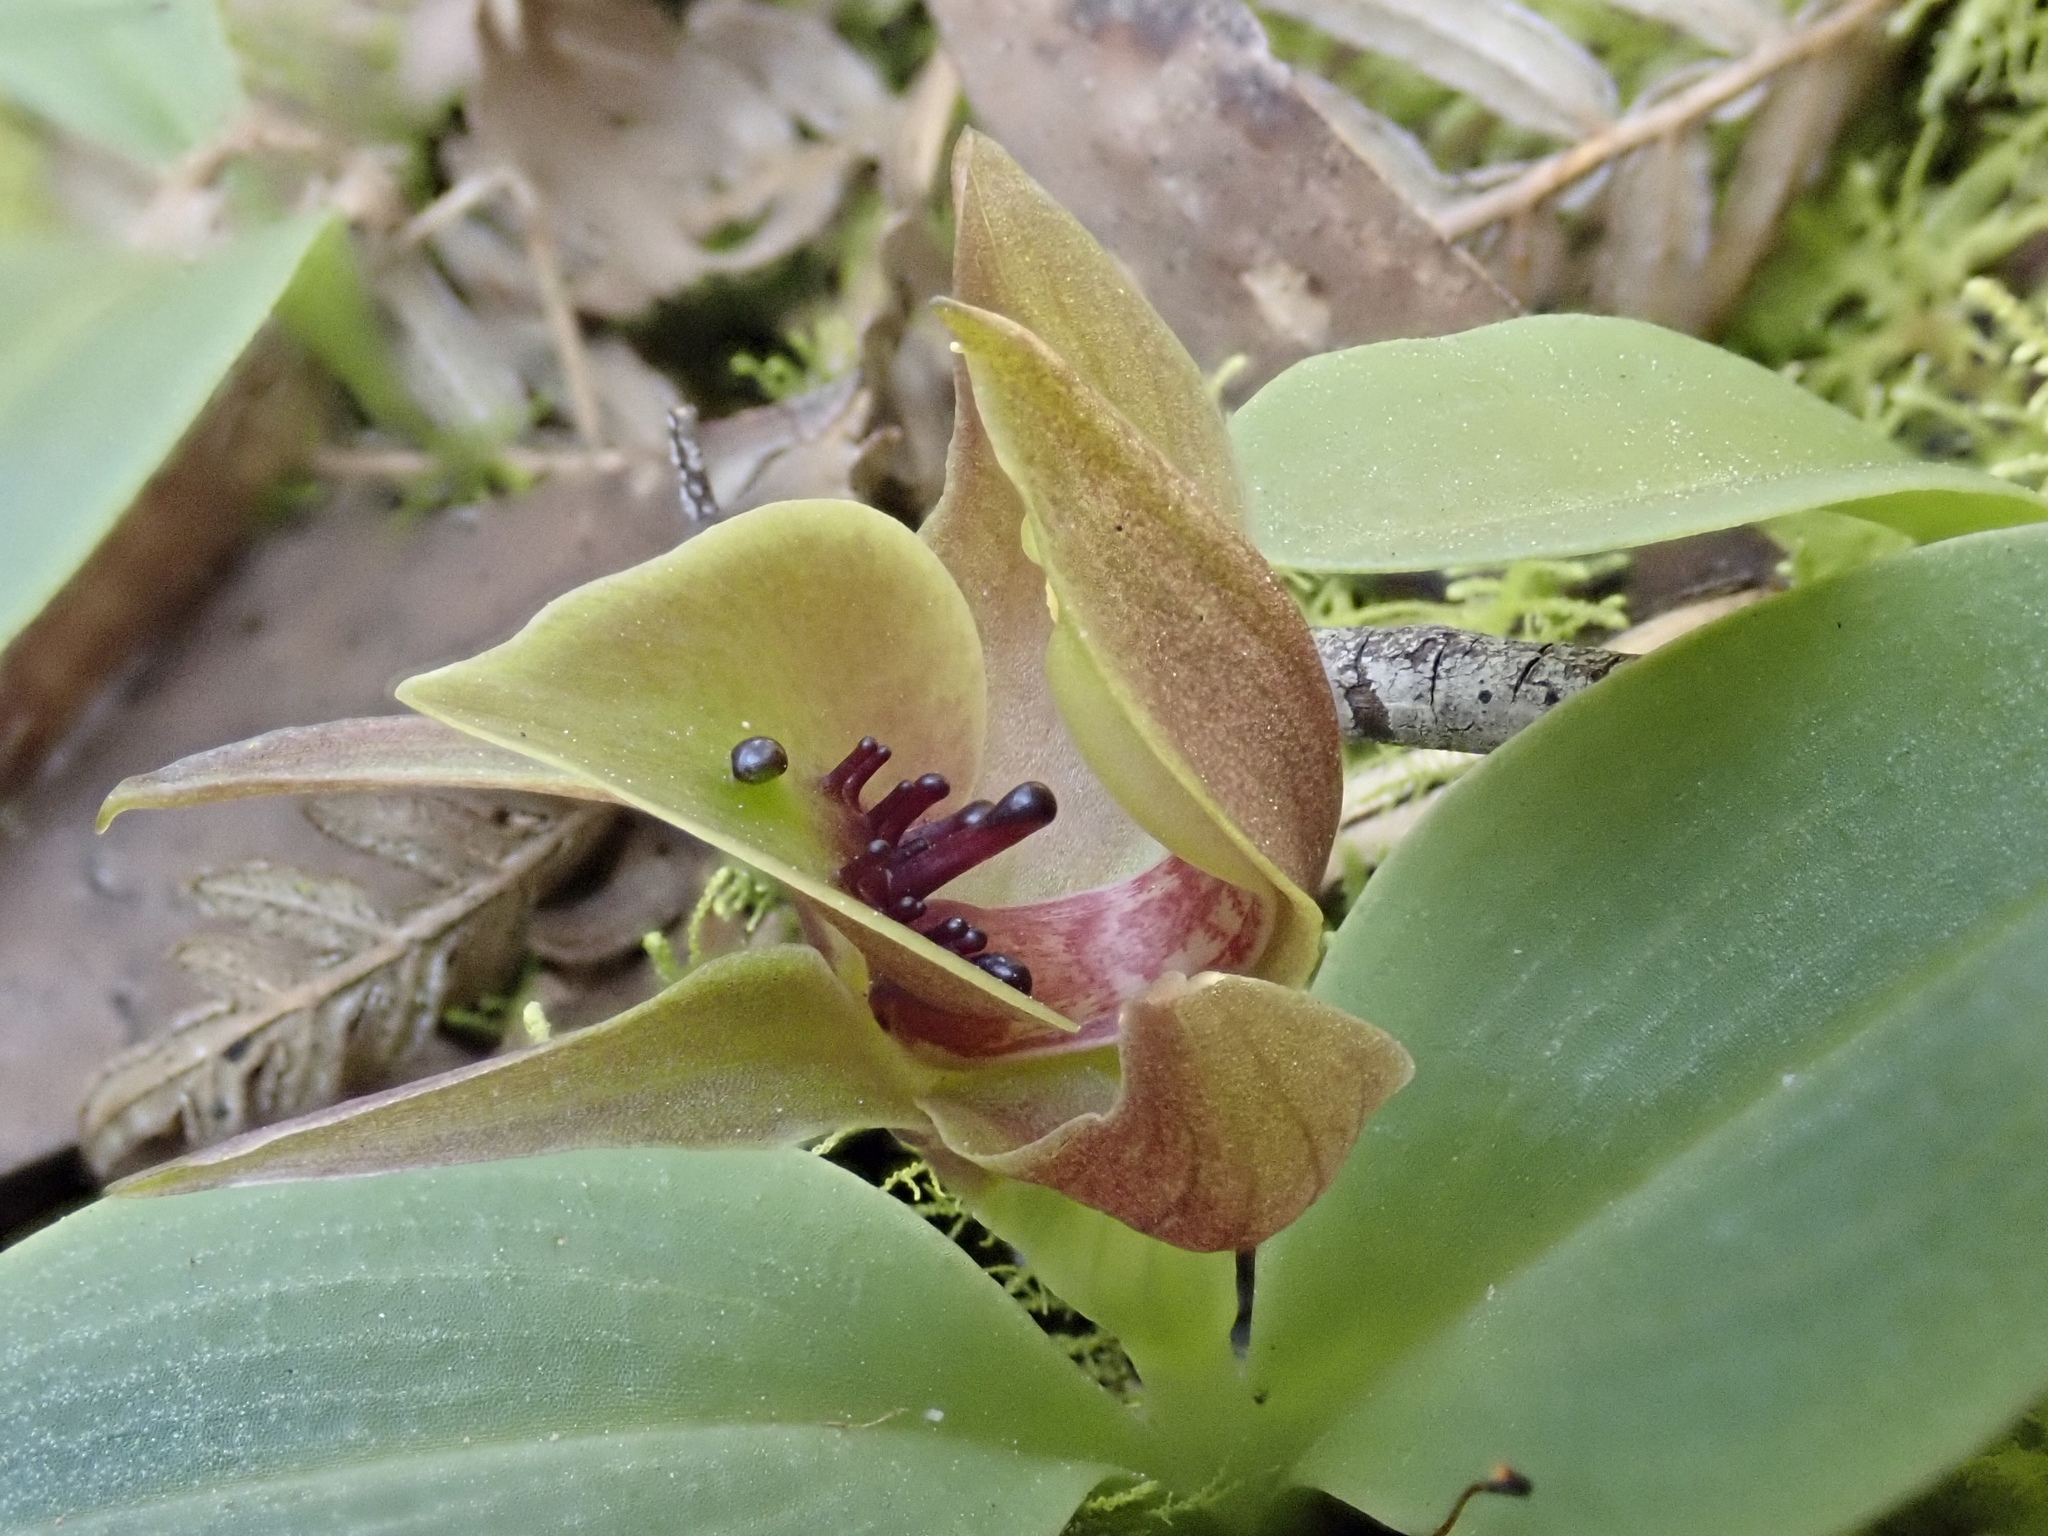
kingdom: Plantae
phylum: Tracheophyta
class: Liliopsida
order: Asparagales
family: Orchidaceae
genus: Chiloglottis
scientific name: Chiloglottis valida
